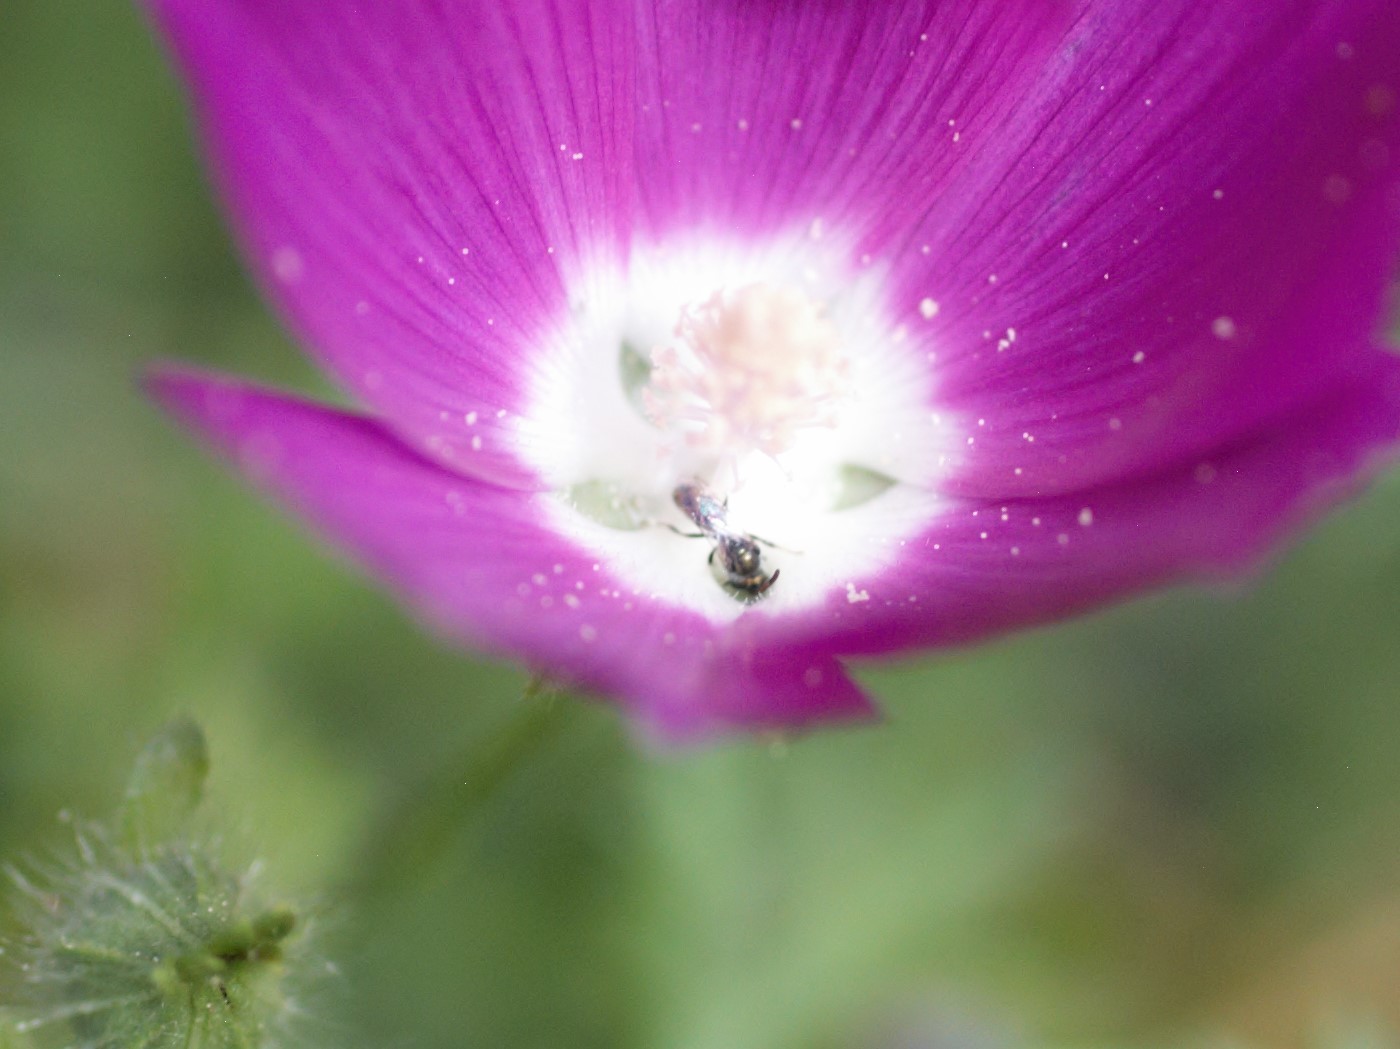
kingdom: Animalia
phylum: Arthropoda
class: Insecta
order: Hymenoptera
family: Halictidae
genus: Dialictus
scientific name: Dialictus
